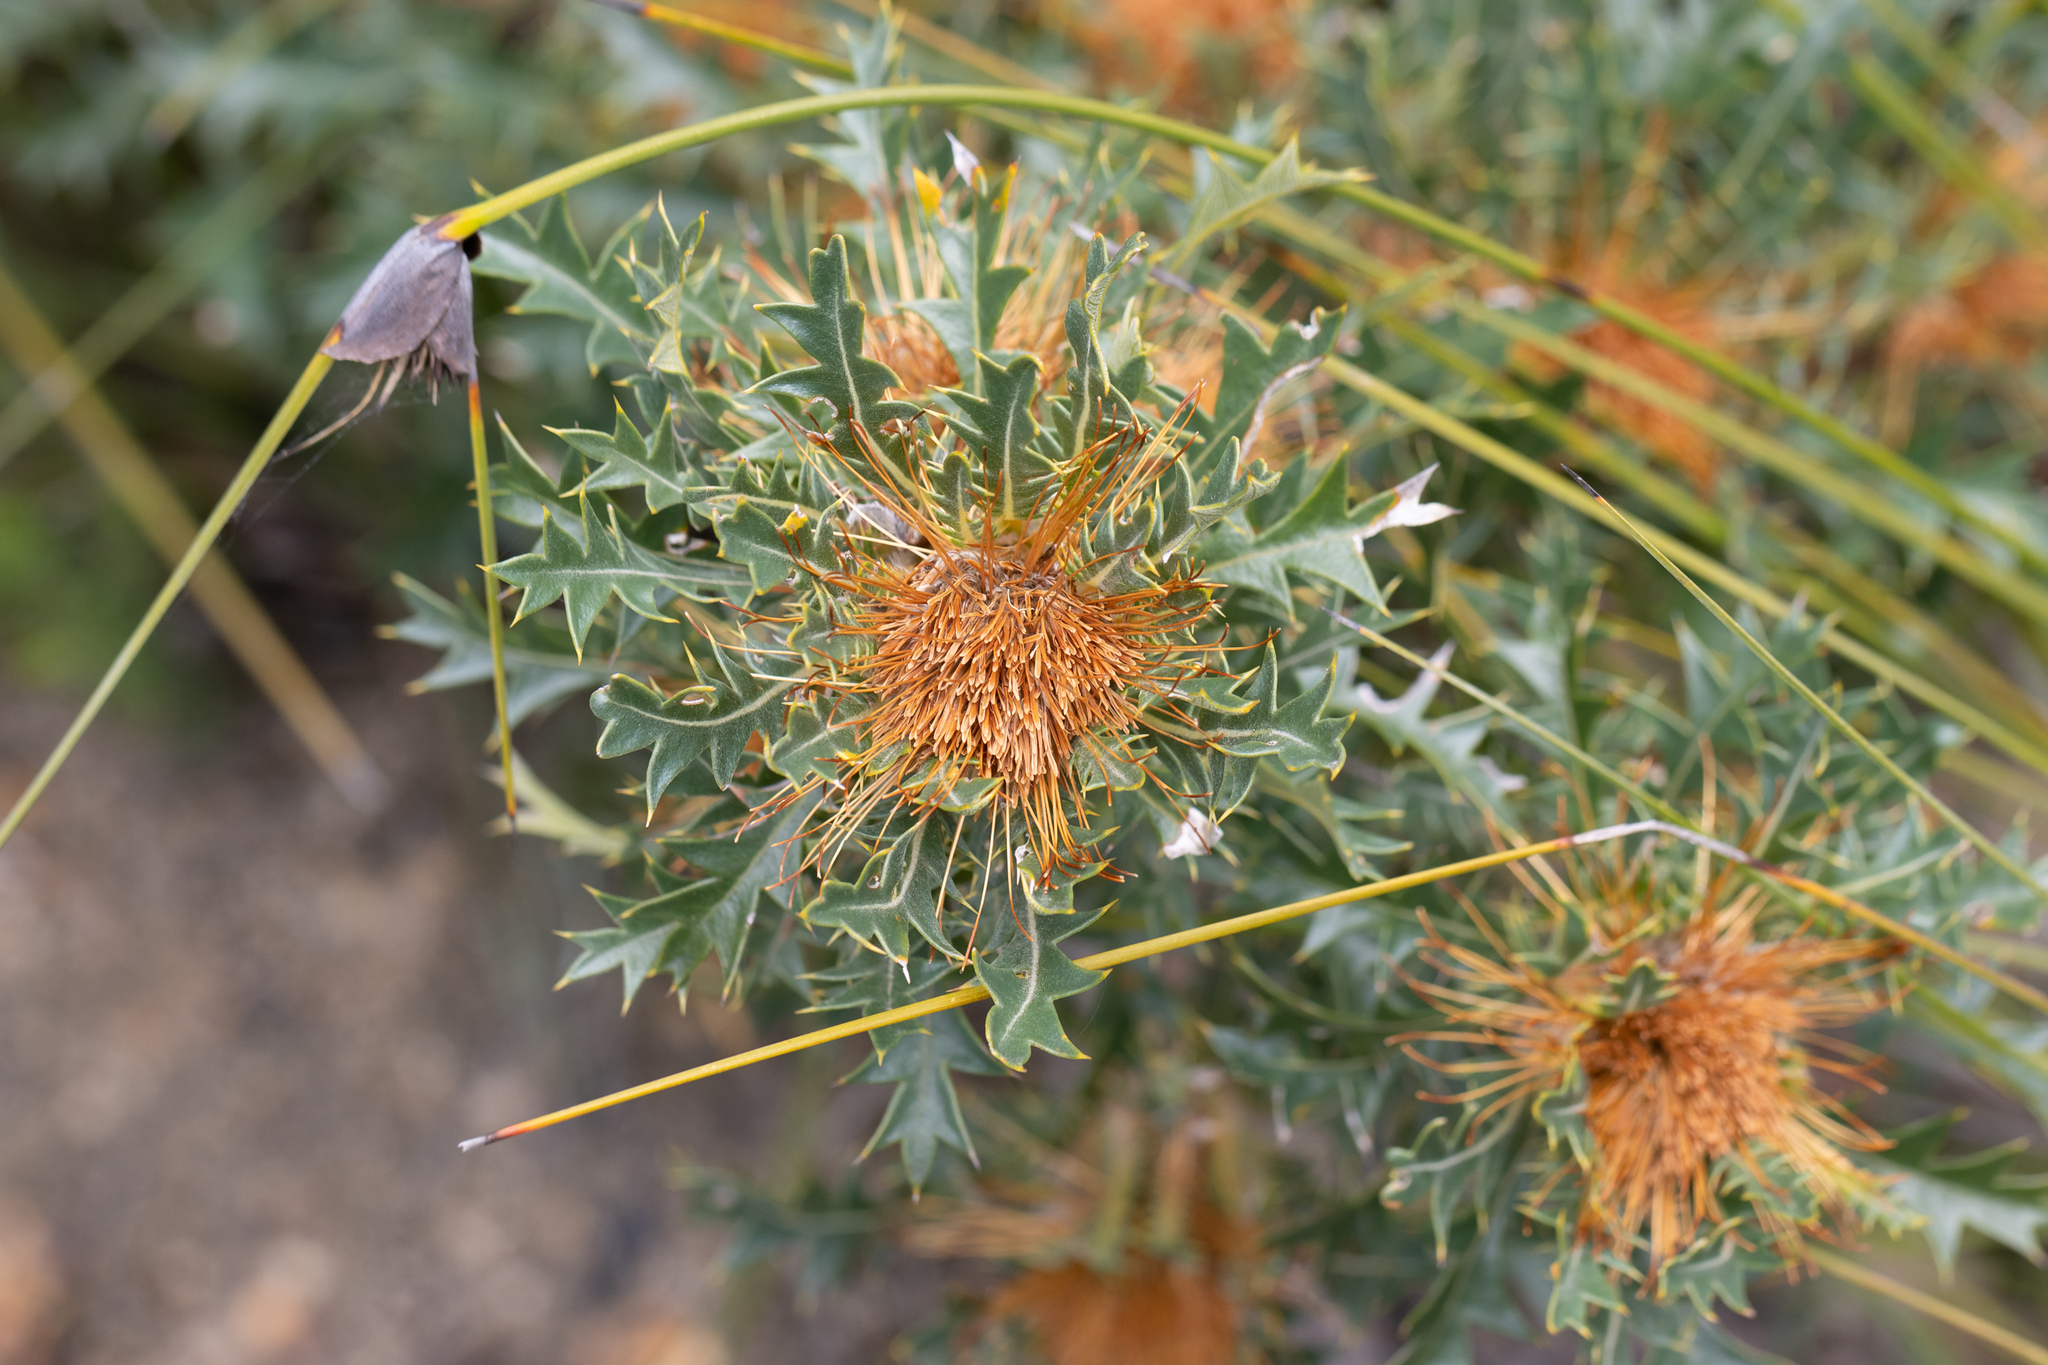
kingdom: Plantae
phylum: Tracheophyta
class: Magnoliopsida
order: Proteales
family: Proteaceae
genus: Banksia
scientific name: Banksia armata
